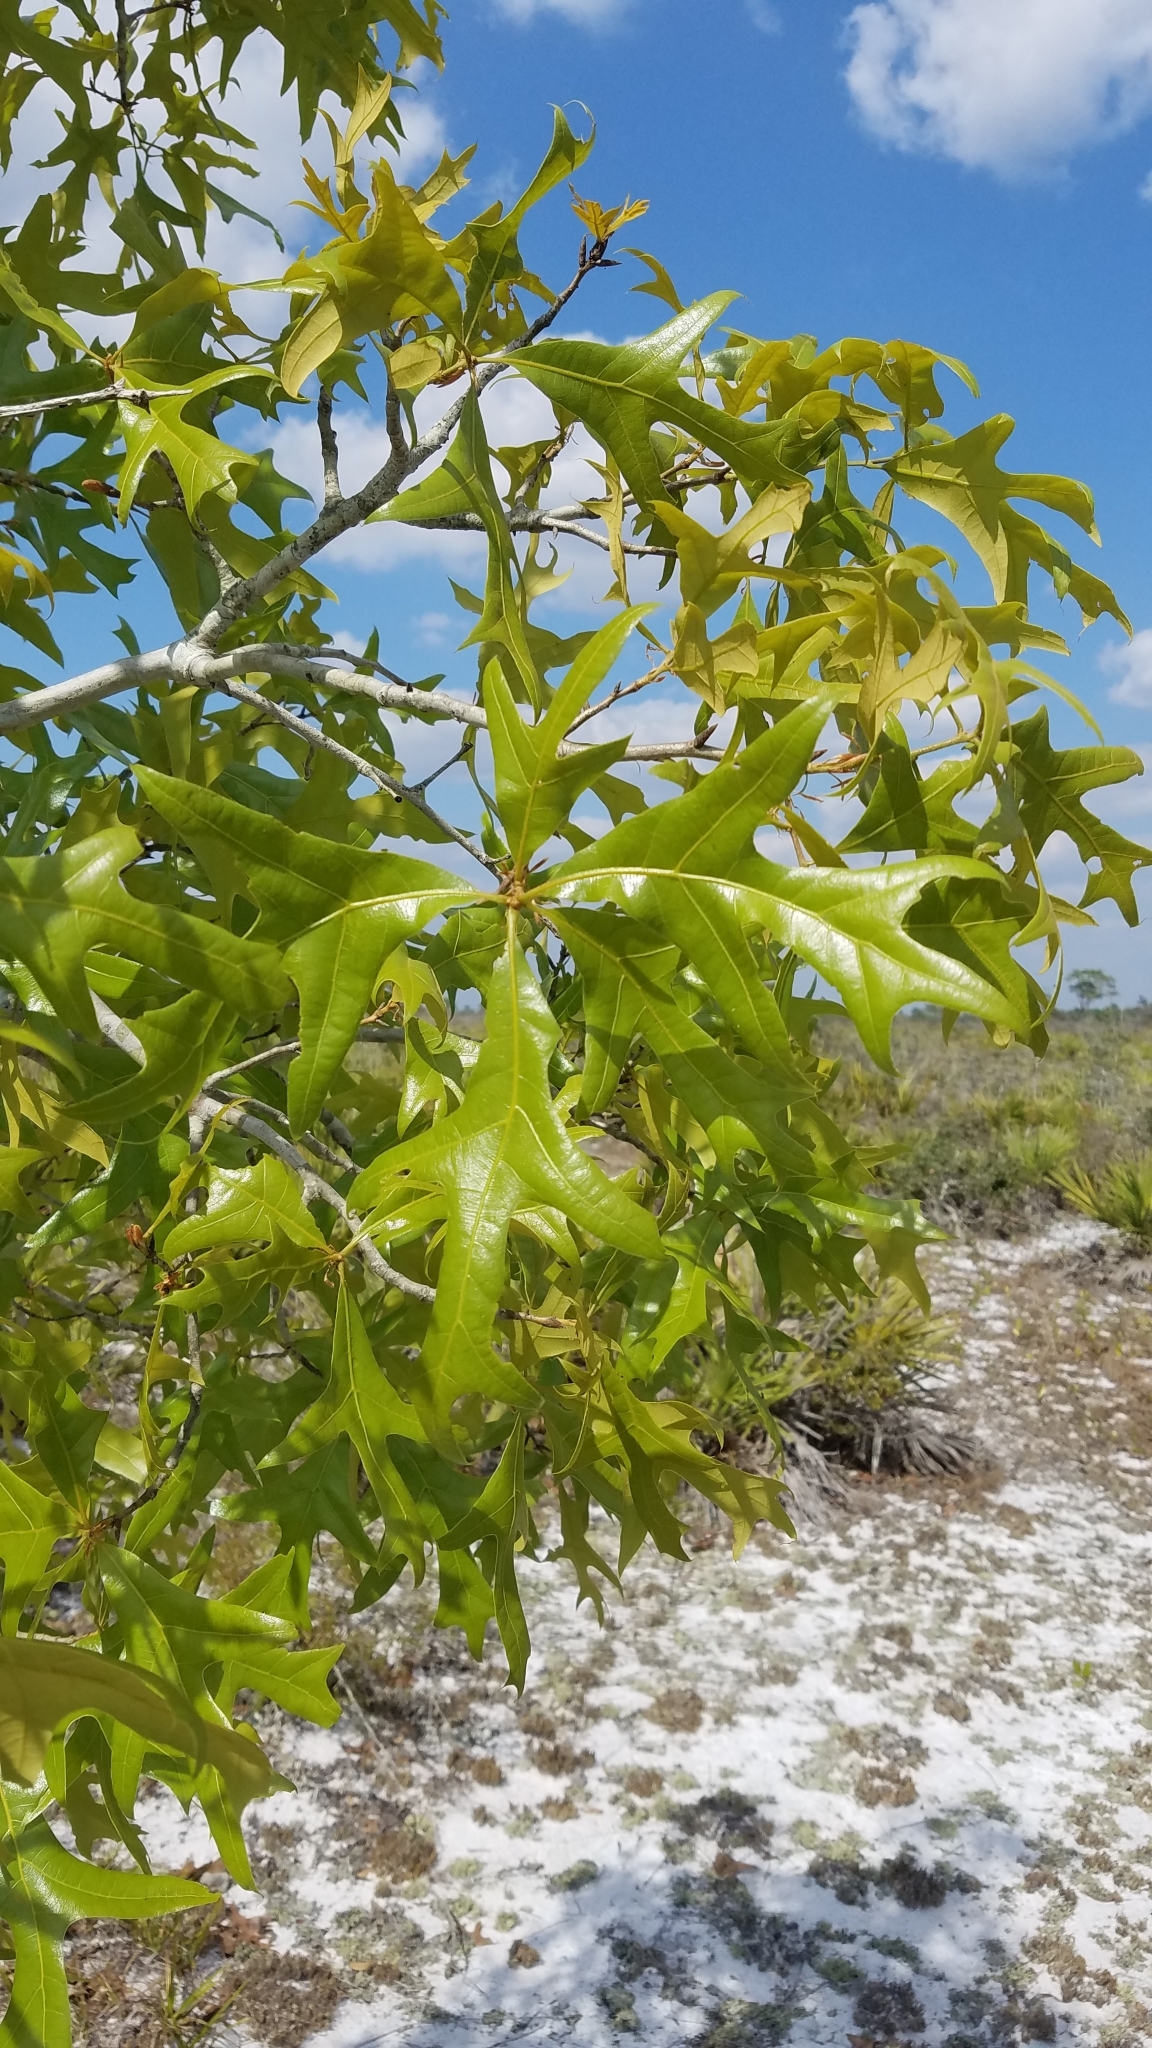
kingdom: Plantae
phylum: Tracheophyta
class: Magnoliopsida
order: Fagales
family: Fagaceae
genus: Quercus
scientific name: Quercus laevis
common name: Turkey oak
